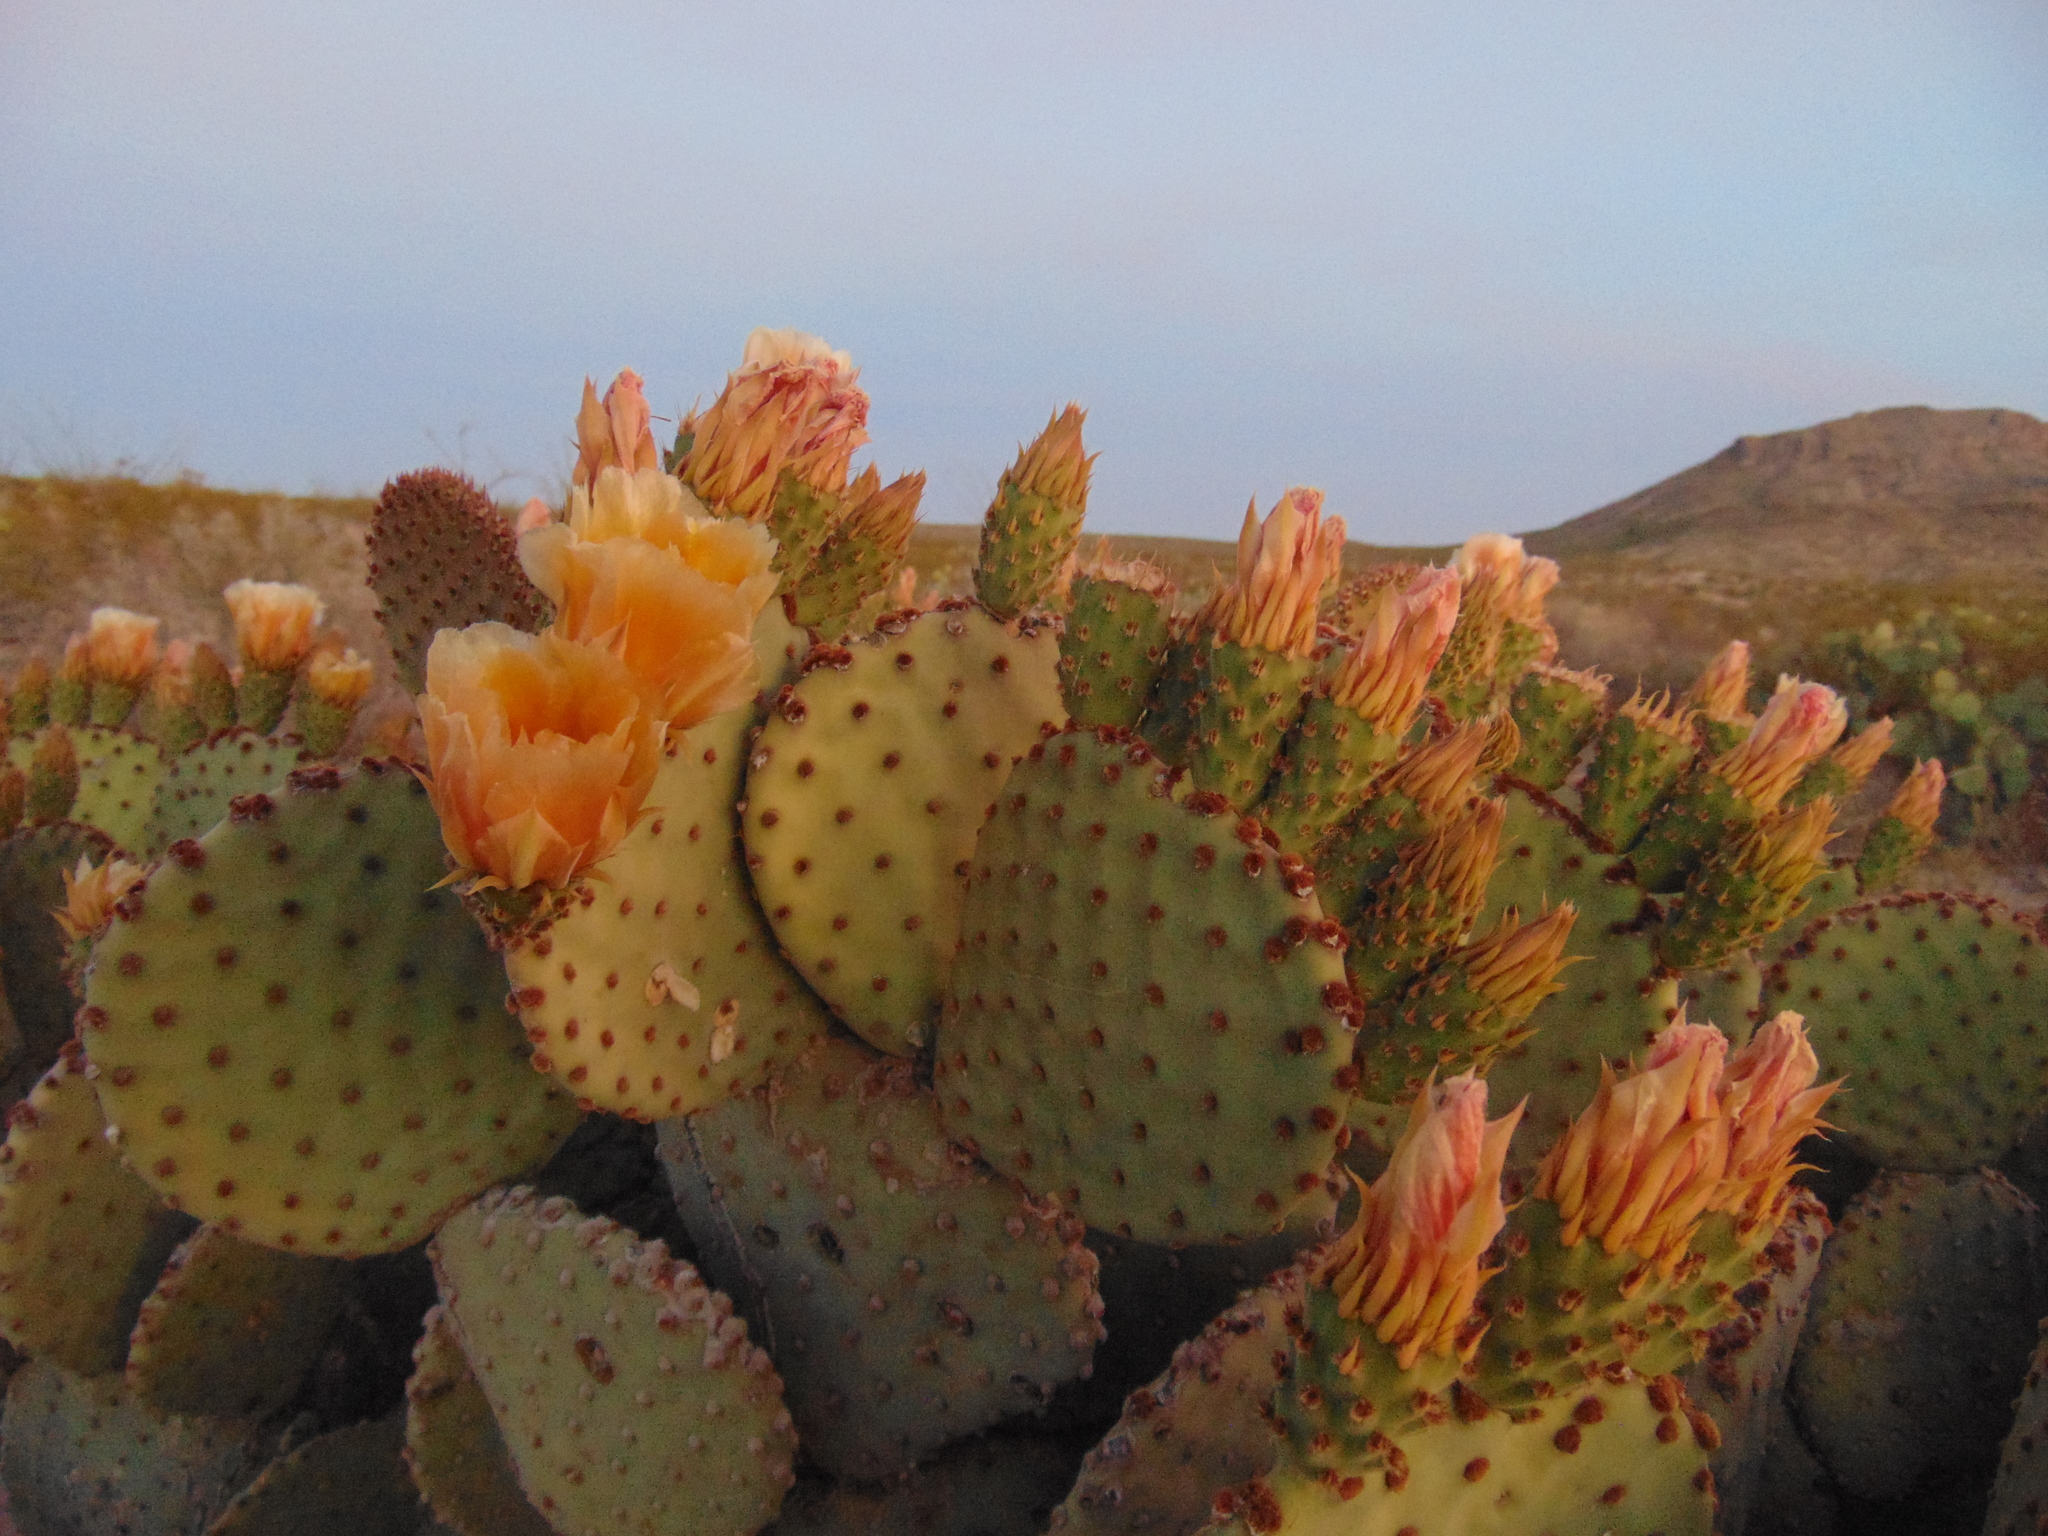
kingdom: Plantae
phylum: Tracheophyta
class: Magnoliopsida
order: Caryophyllales
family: Cactaceae
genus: Opuntia
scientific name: Opuntia rufida
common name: Blind pricklypear
